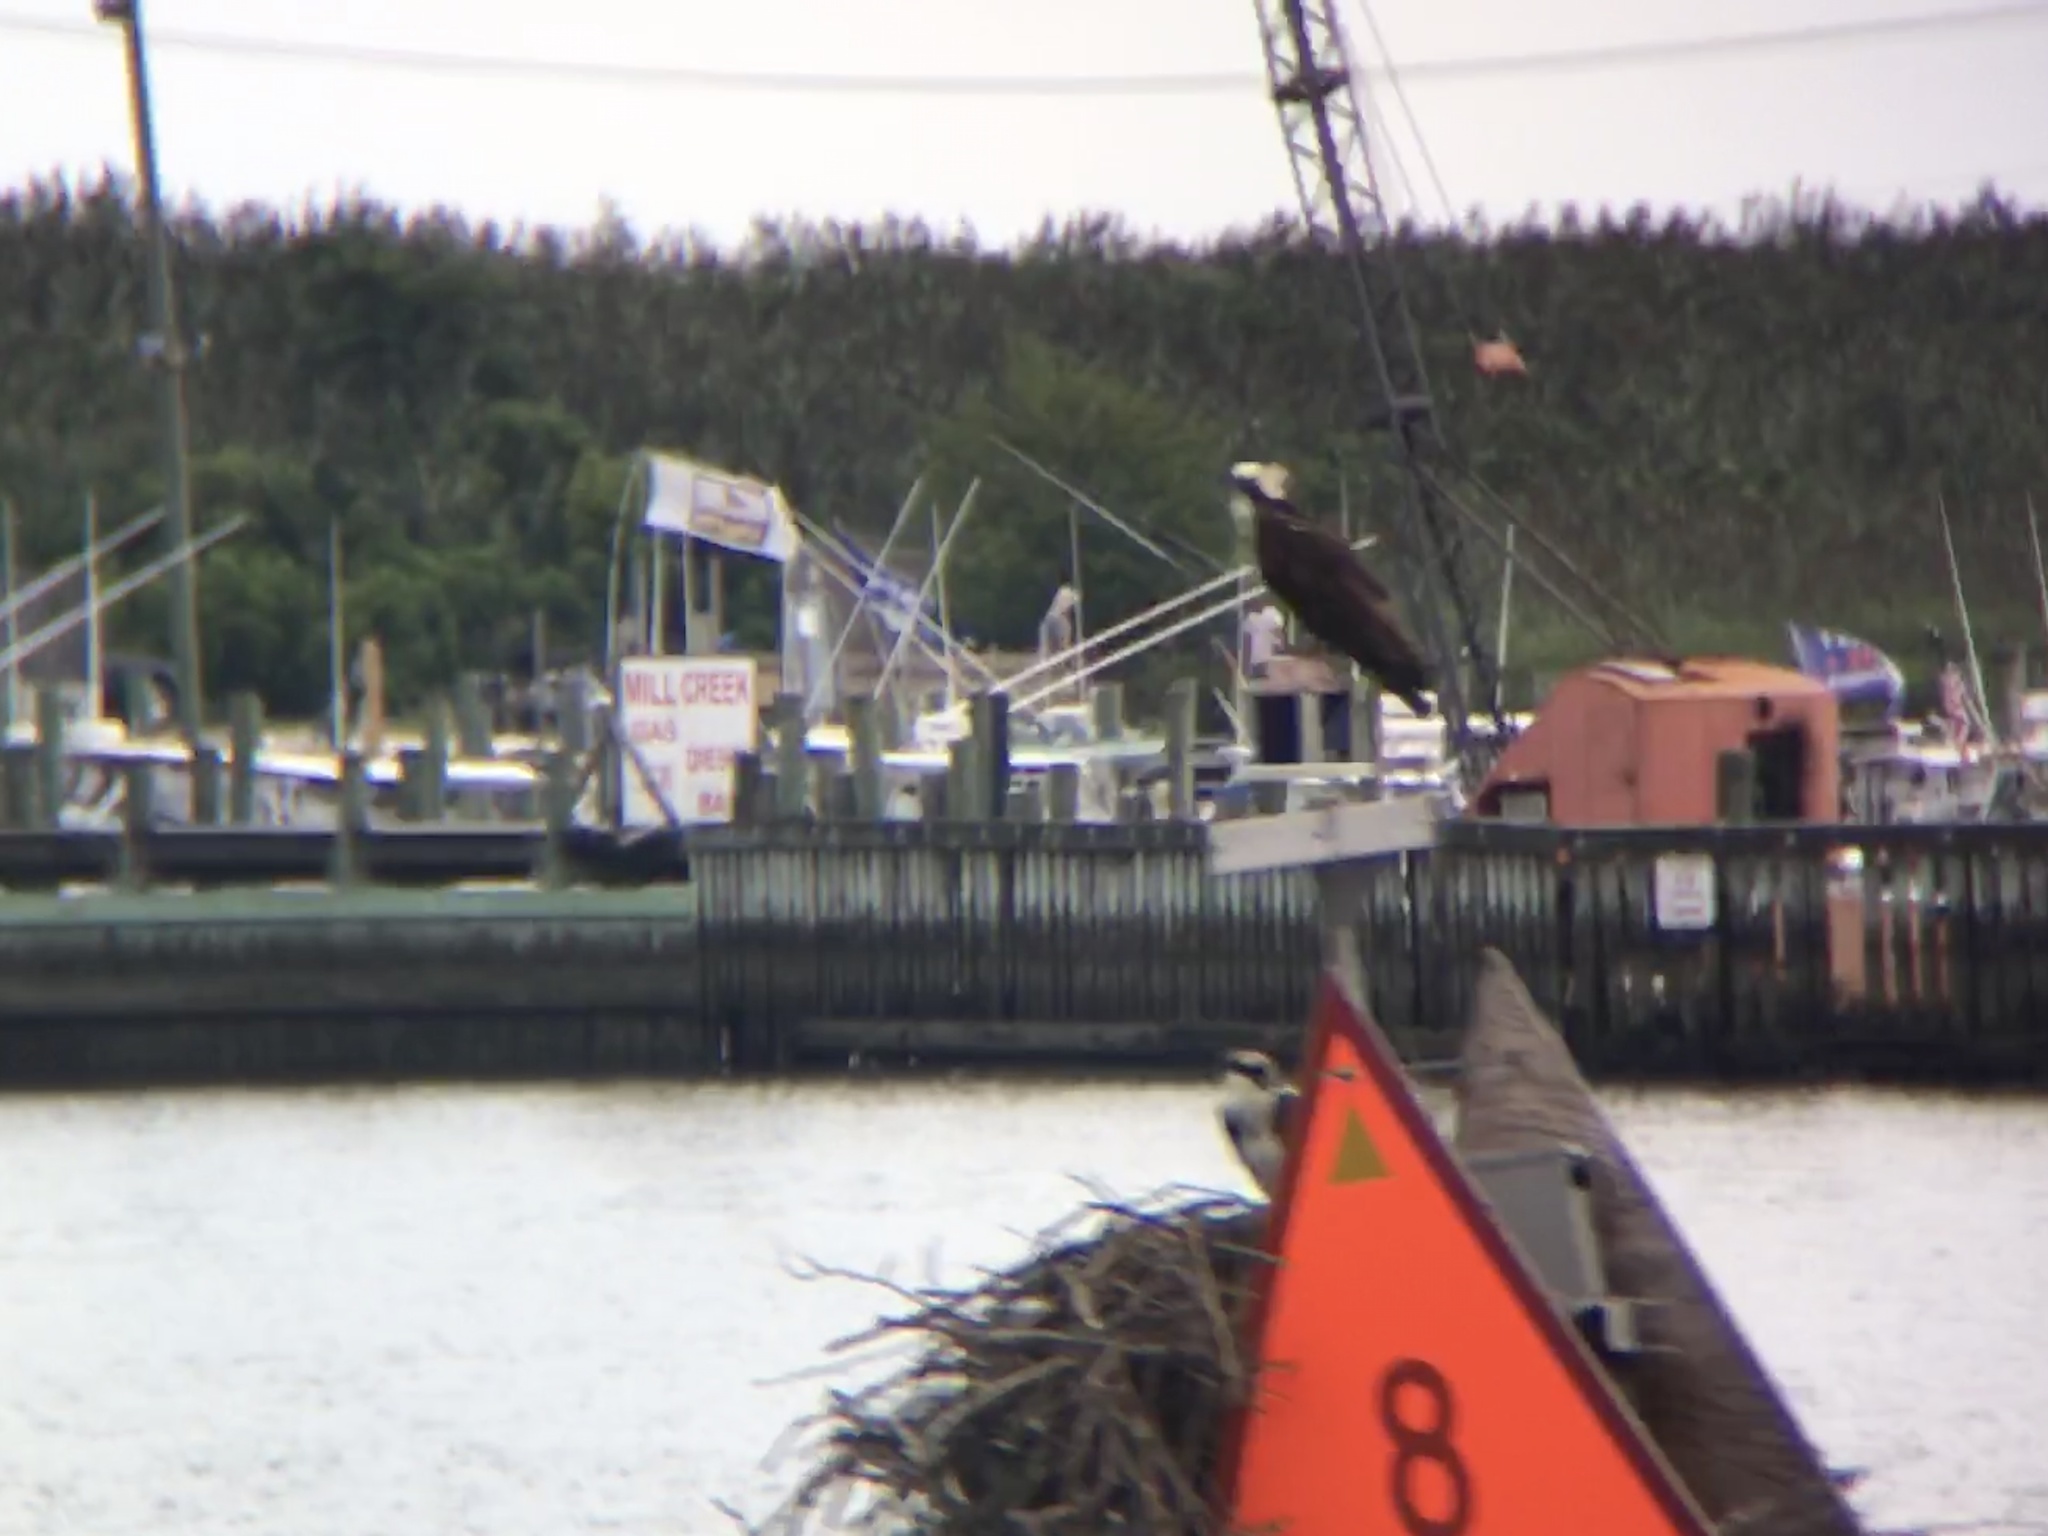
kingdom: Animalia
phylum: Chordata
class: Aves
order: Accipitriformes
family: Pandionidae
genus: Pandion
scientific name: Pandion haliaetus
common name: Osprey
